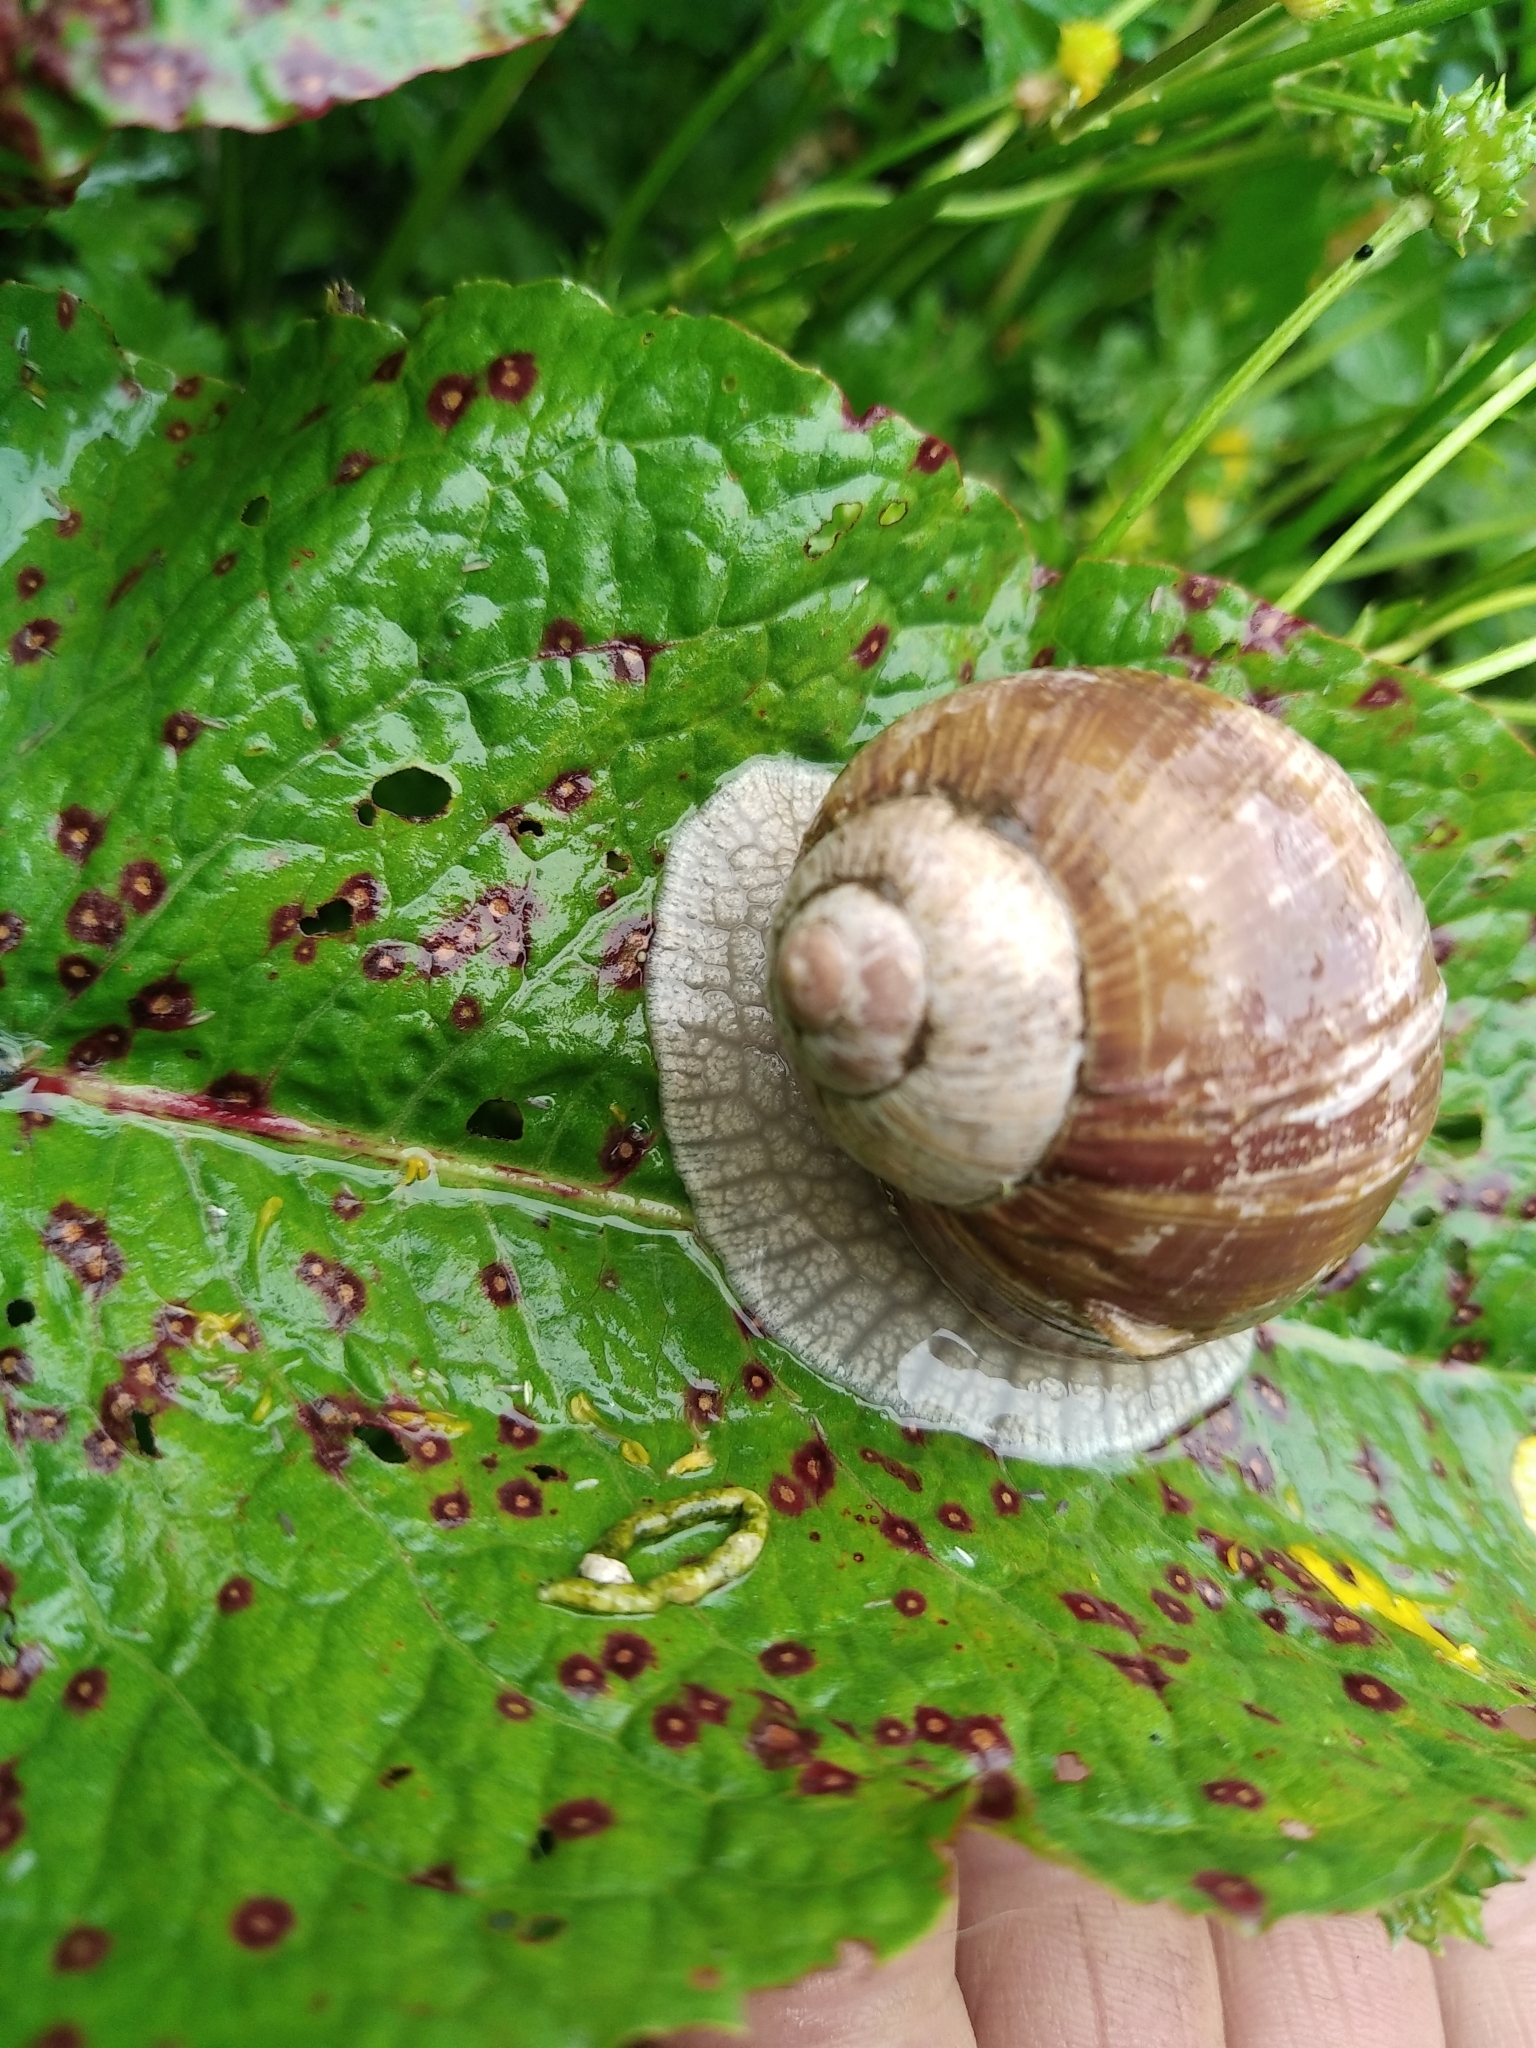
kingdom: Animalia
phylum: Mollusca
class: Gastropoda
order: Stylommatophora
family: Helicidae
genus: Helix
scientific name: Helix pomatia
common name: Roman snail
